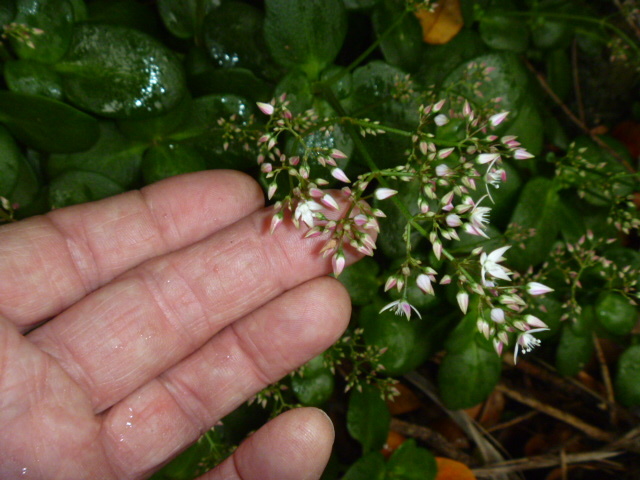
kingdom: Plantae
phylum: Tracheophyta
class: Magnoliopsida
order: Saxifragales
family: Crassulaceae
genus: Crassula
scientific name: Crassula multicava
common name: Cape province pygmyweed
